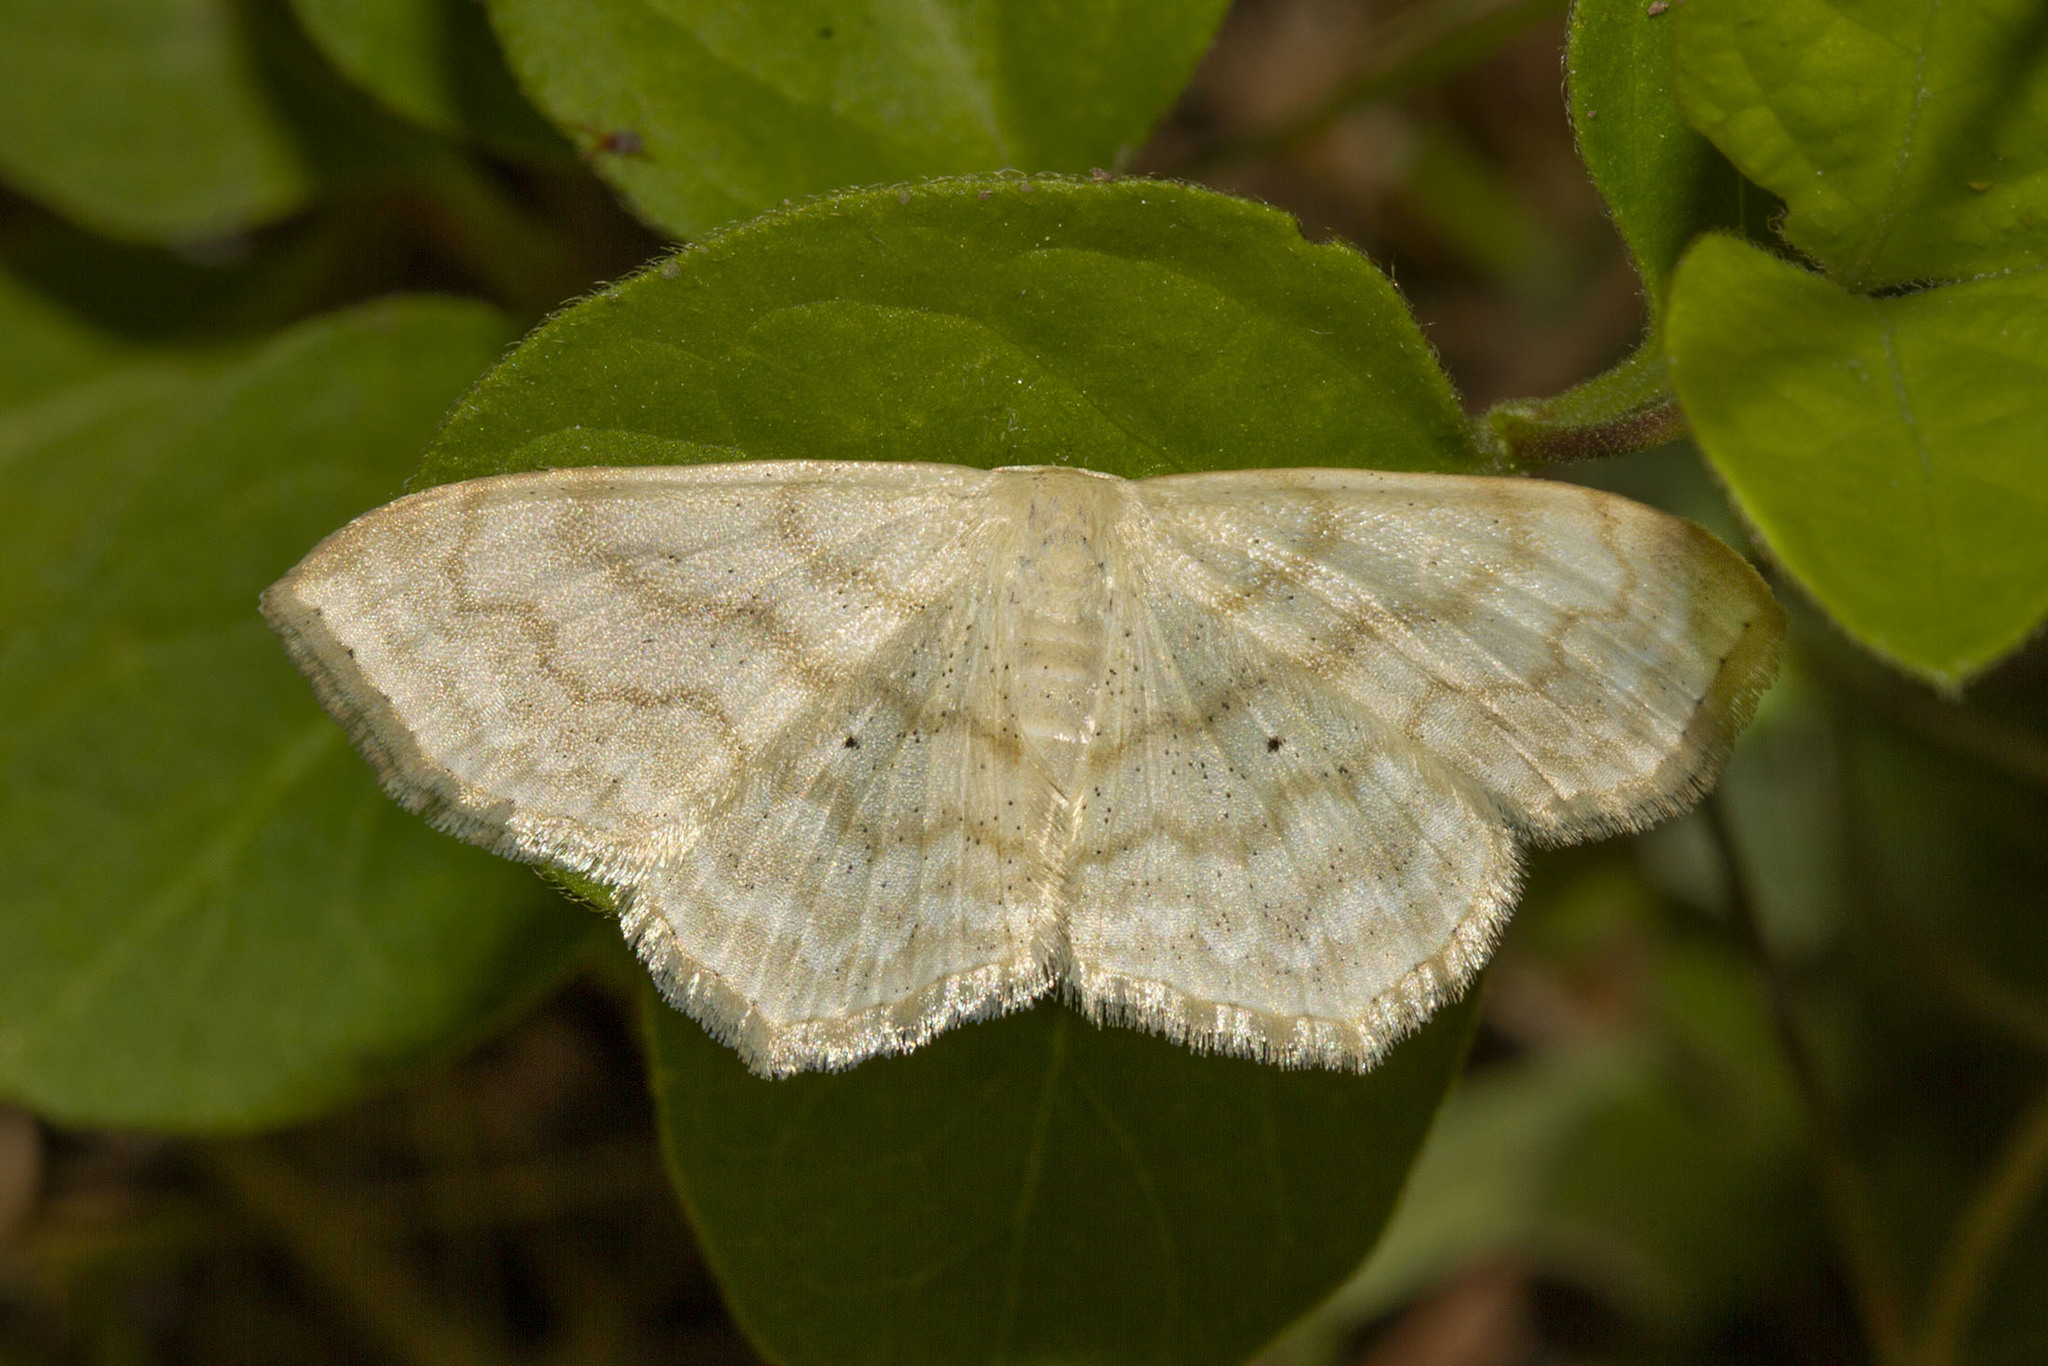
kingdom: Animalia
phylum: Arthropoda
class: Insecta
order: Lepidoptera
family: Geometridae
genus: Scopula
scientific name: Scopula limboundata
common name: Large lace border
